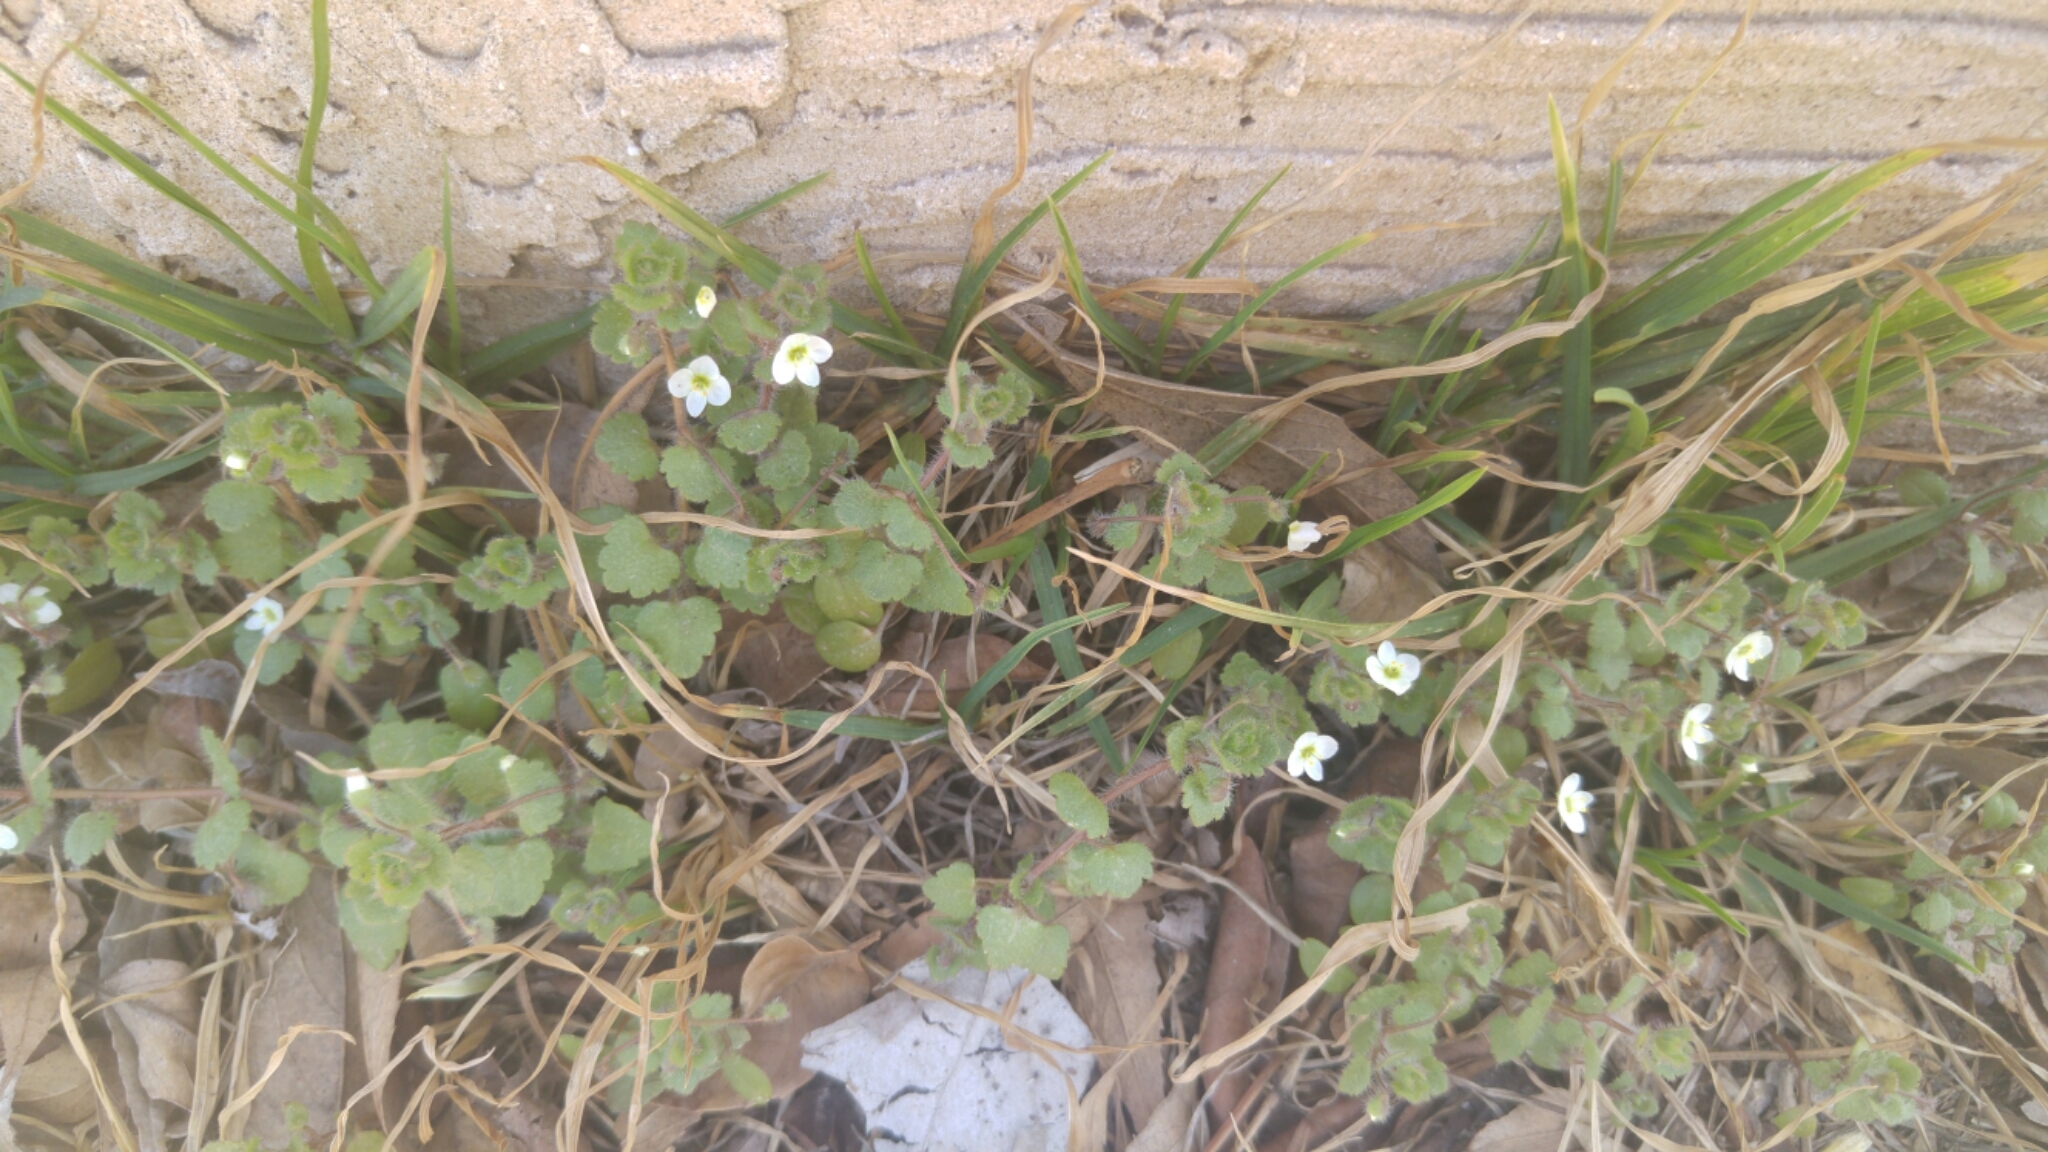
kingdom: Plantae
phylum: Tracheophyta
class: Magnoliopsida
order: Lamiales
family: Plantaginaceae
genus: Veronica
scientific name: Veronica cymbalaria
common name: Pale speedwell
